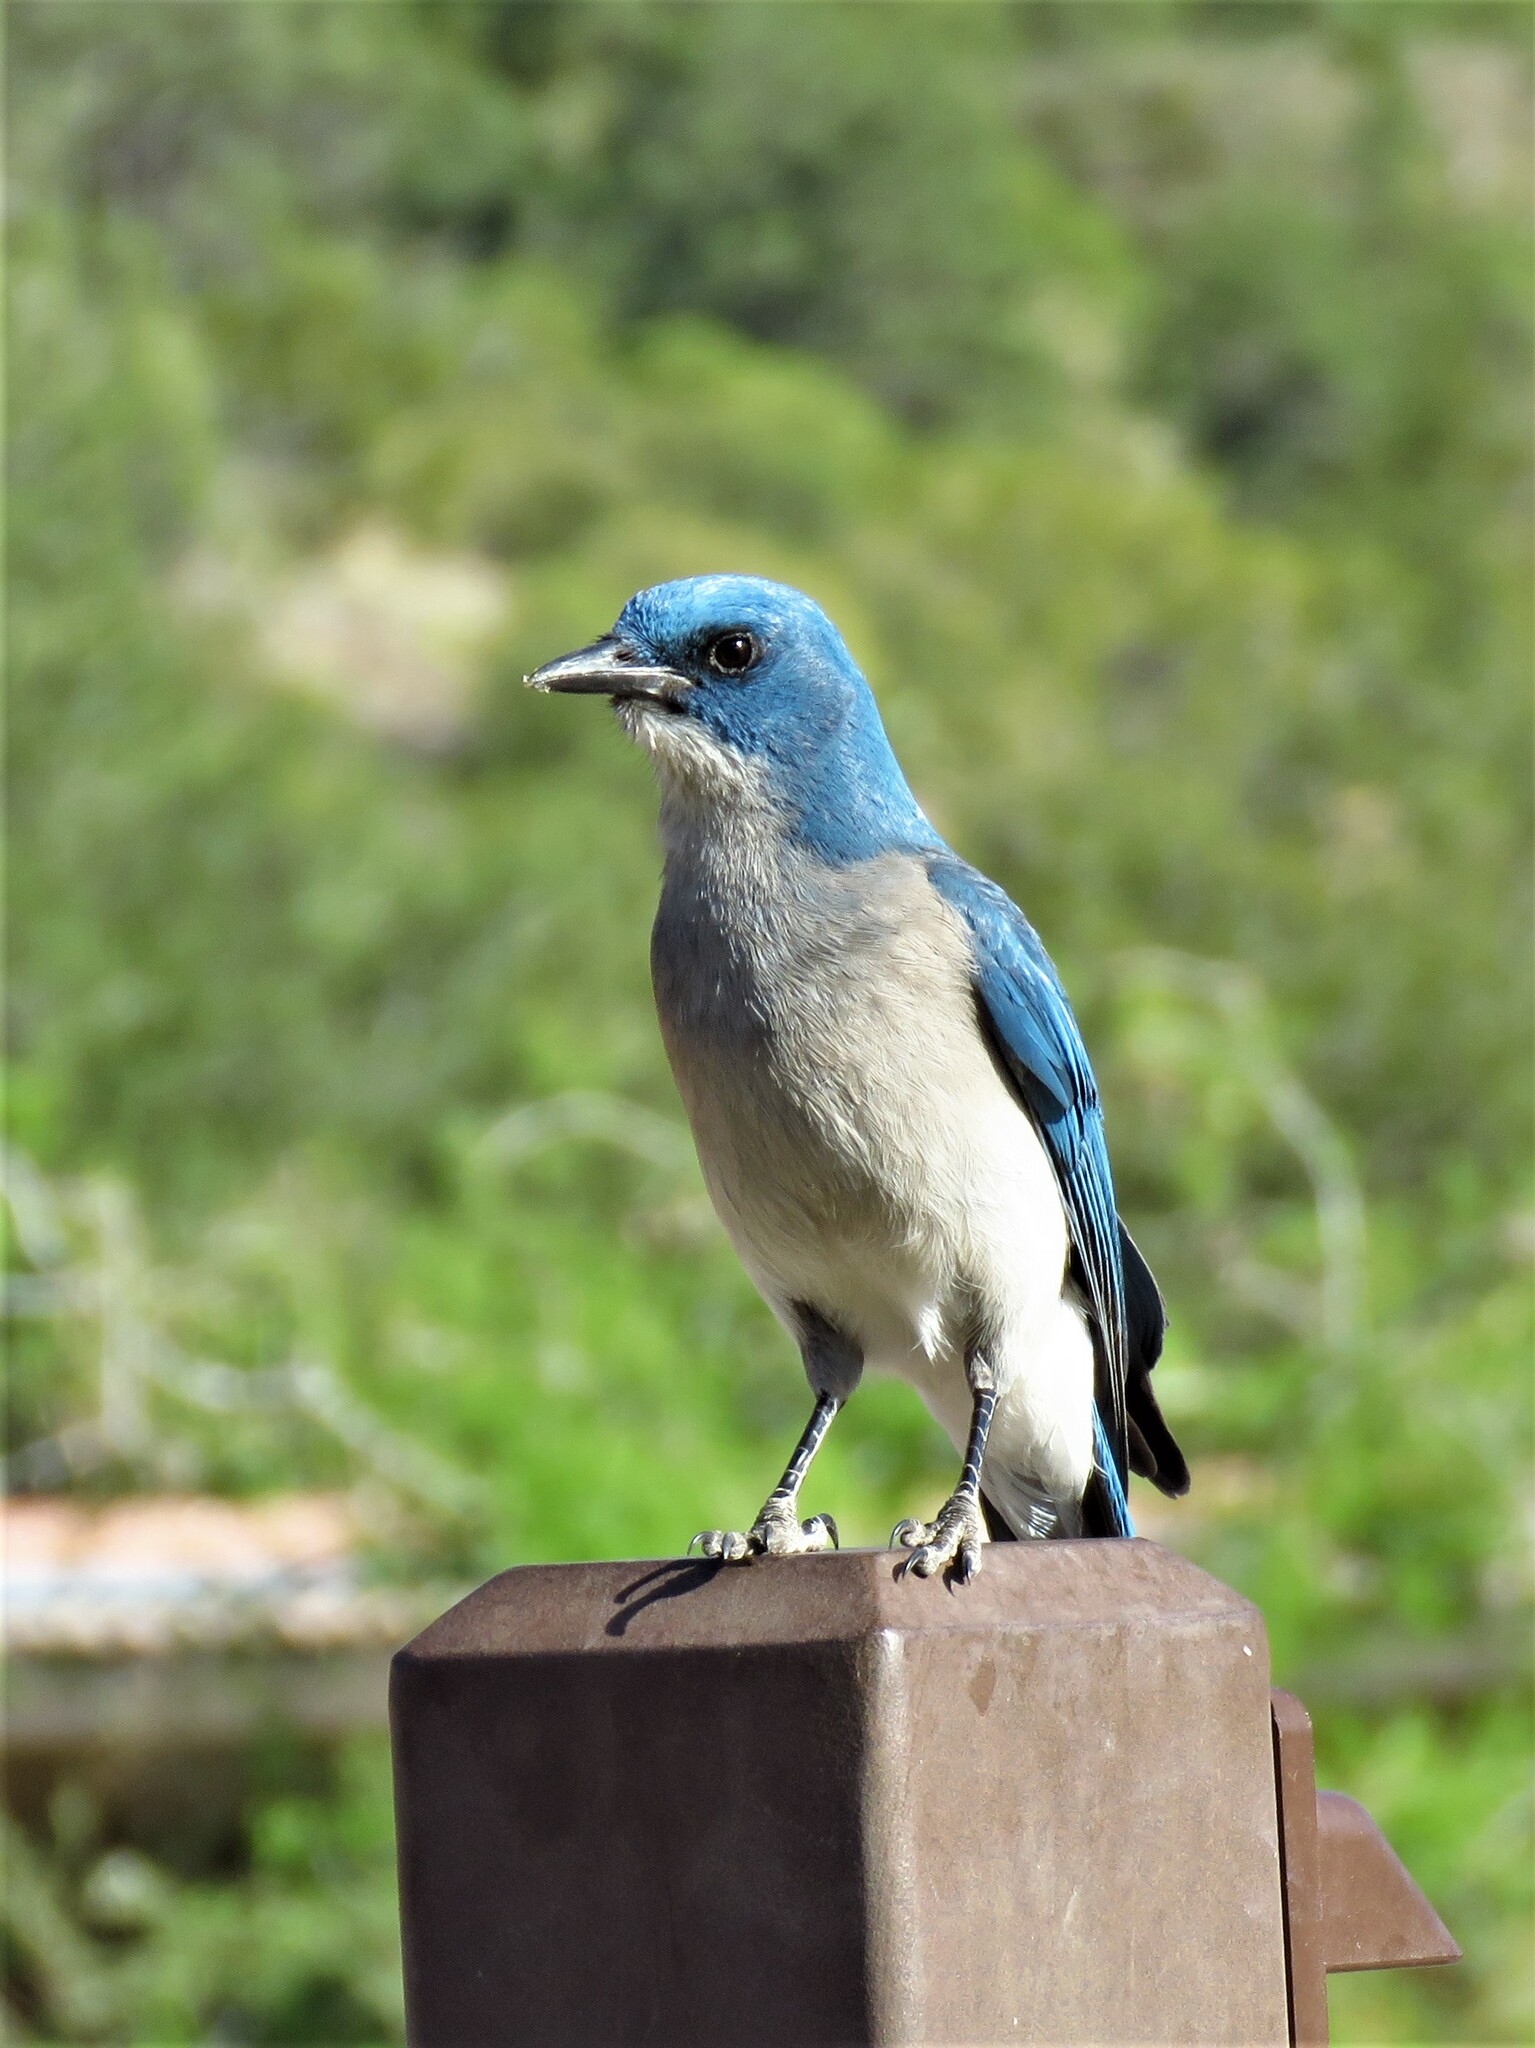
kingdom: Animalia
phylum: Chordata
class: Aves
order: Passeriformes
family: Corvidae
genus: Aphelocoma
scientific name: Aphelocoma wollweberi
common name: Mexican jay
